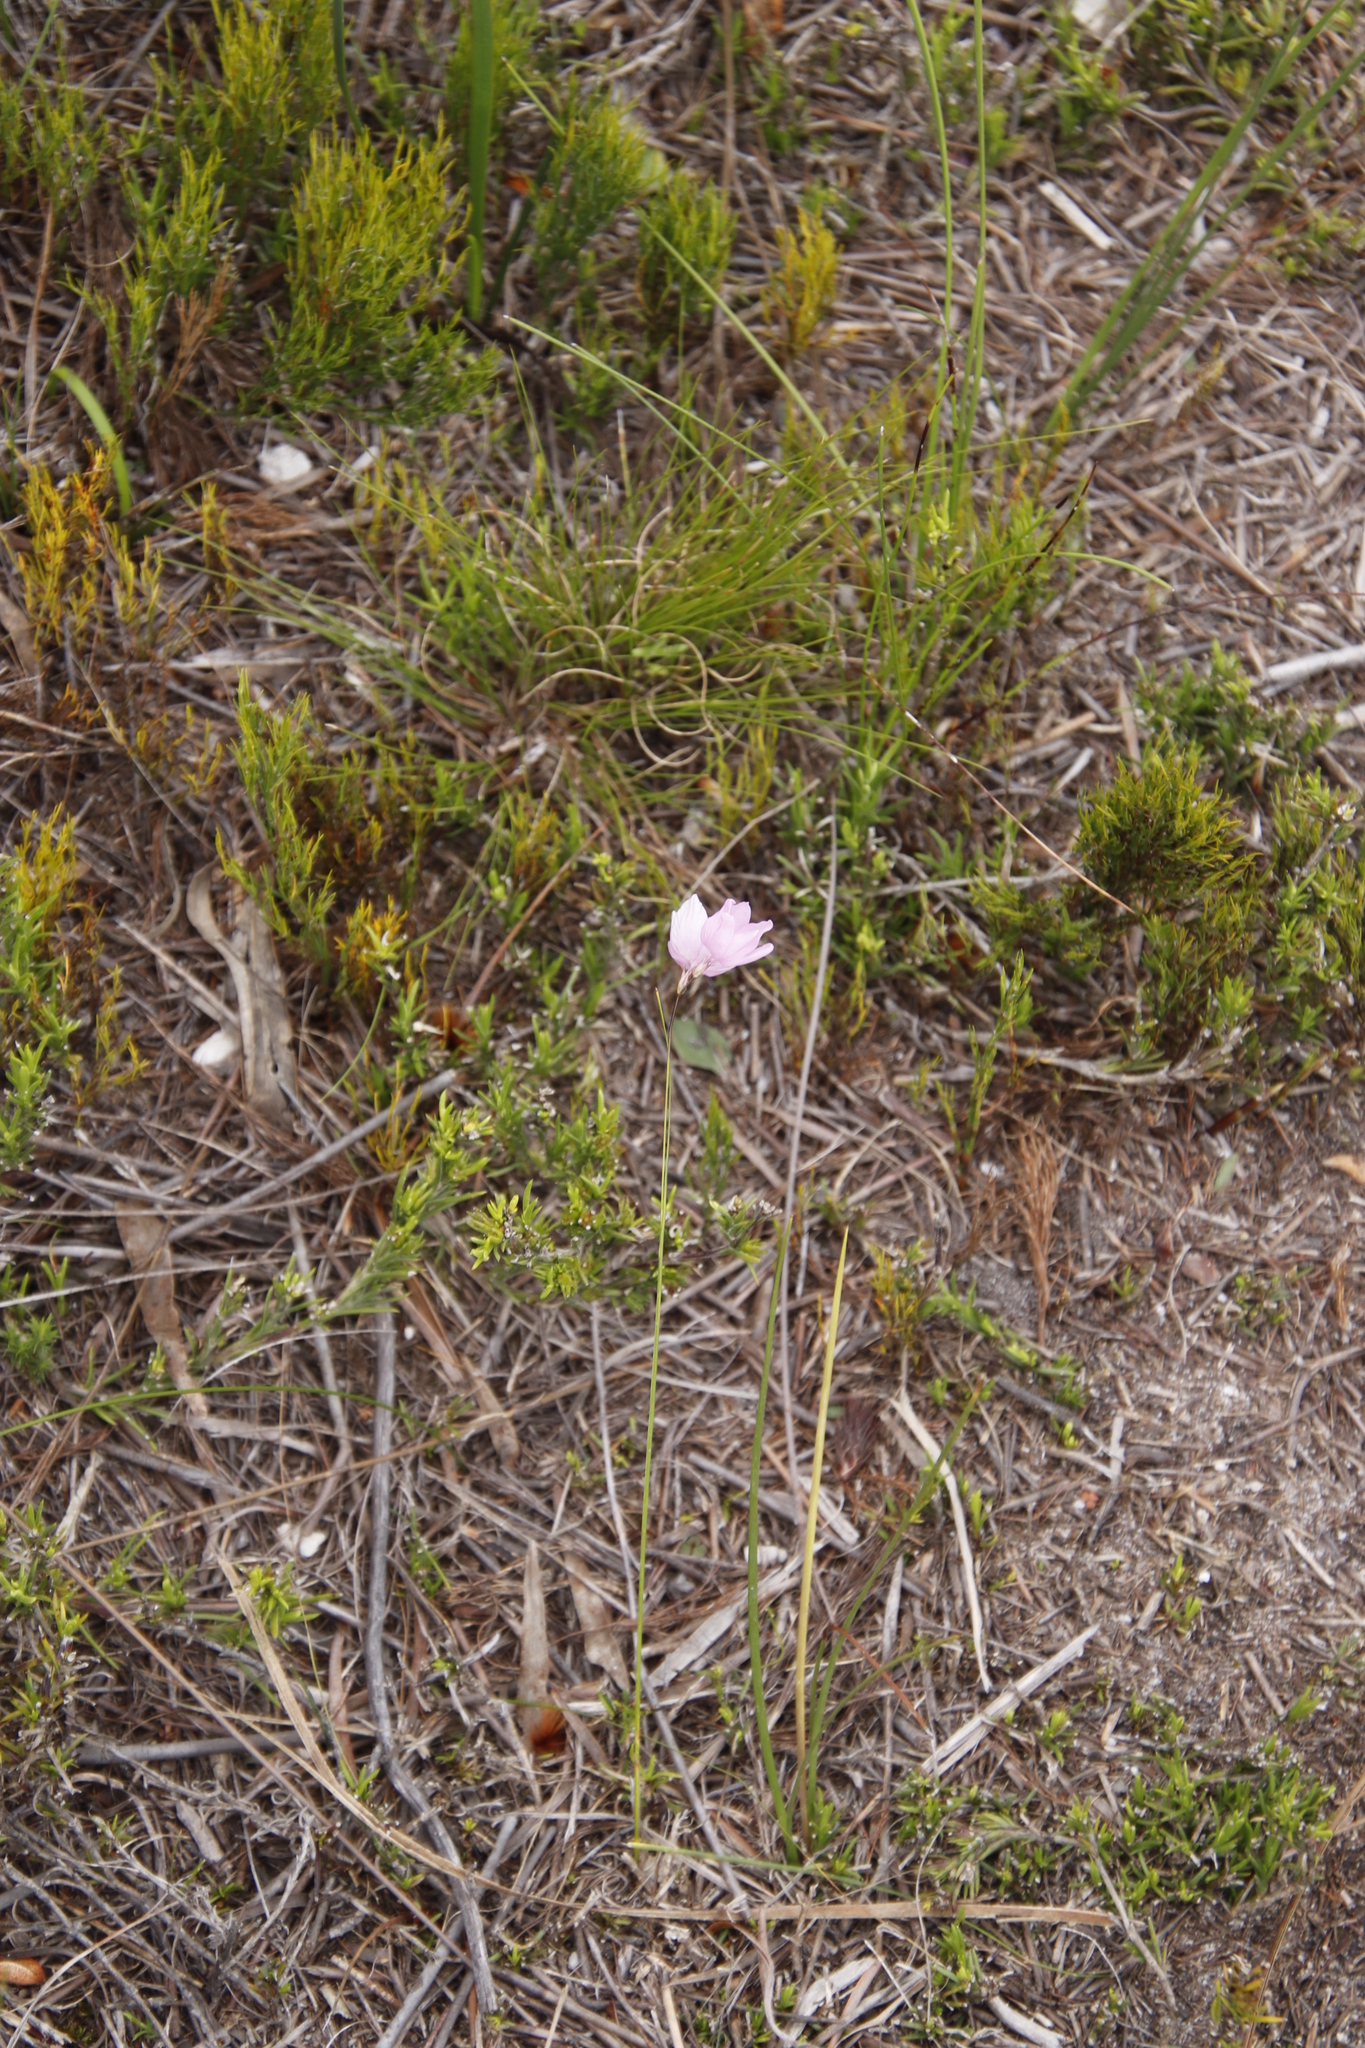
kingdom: Plantae
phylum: Tracheophyta
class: Liliopsida
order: Asparagales
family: Iridaceae
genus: Ixia
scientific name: Ixia micrandra
